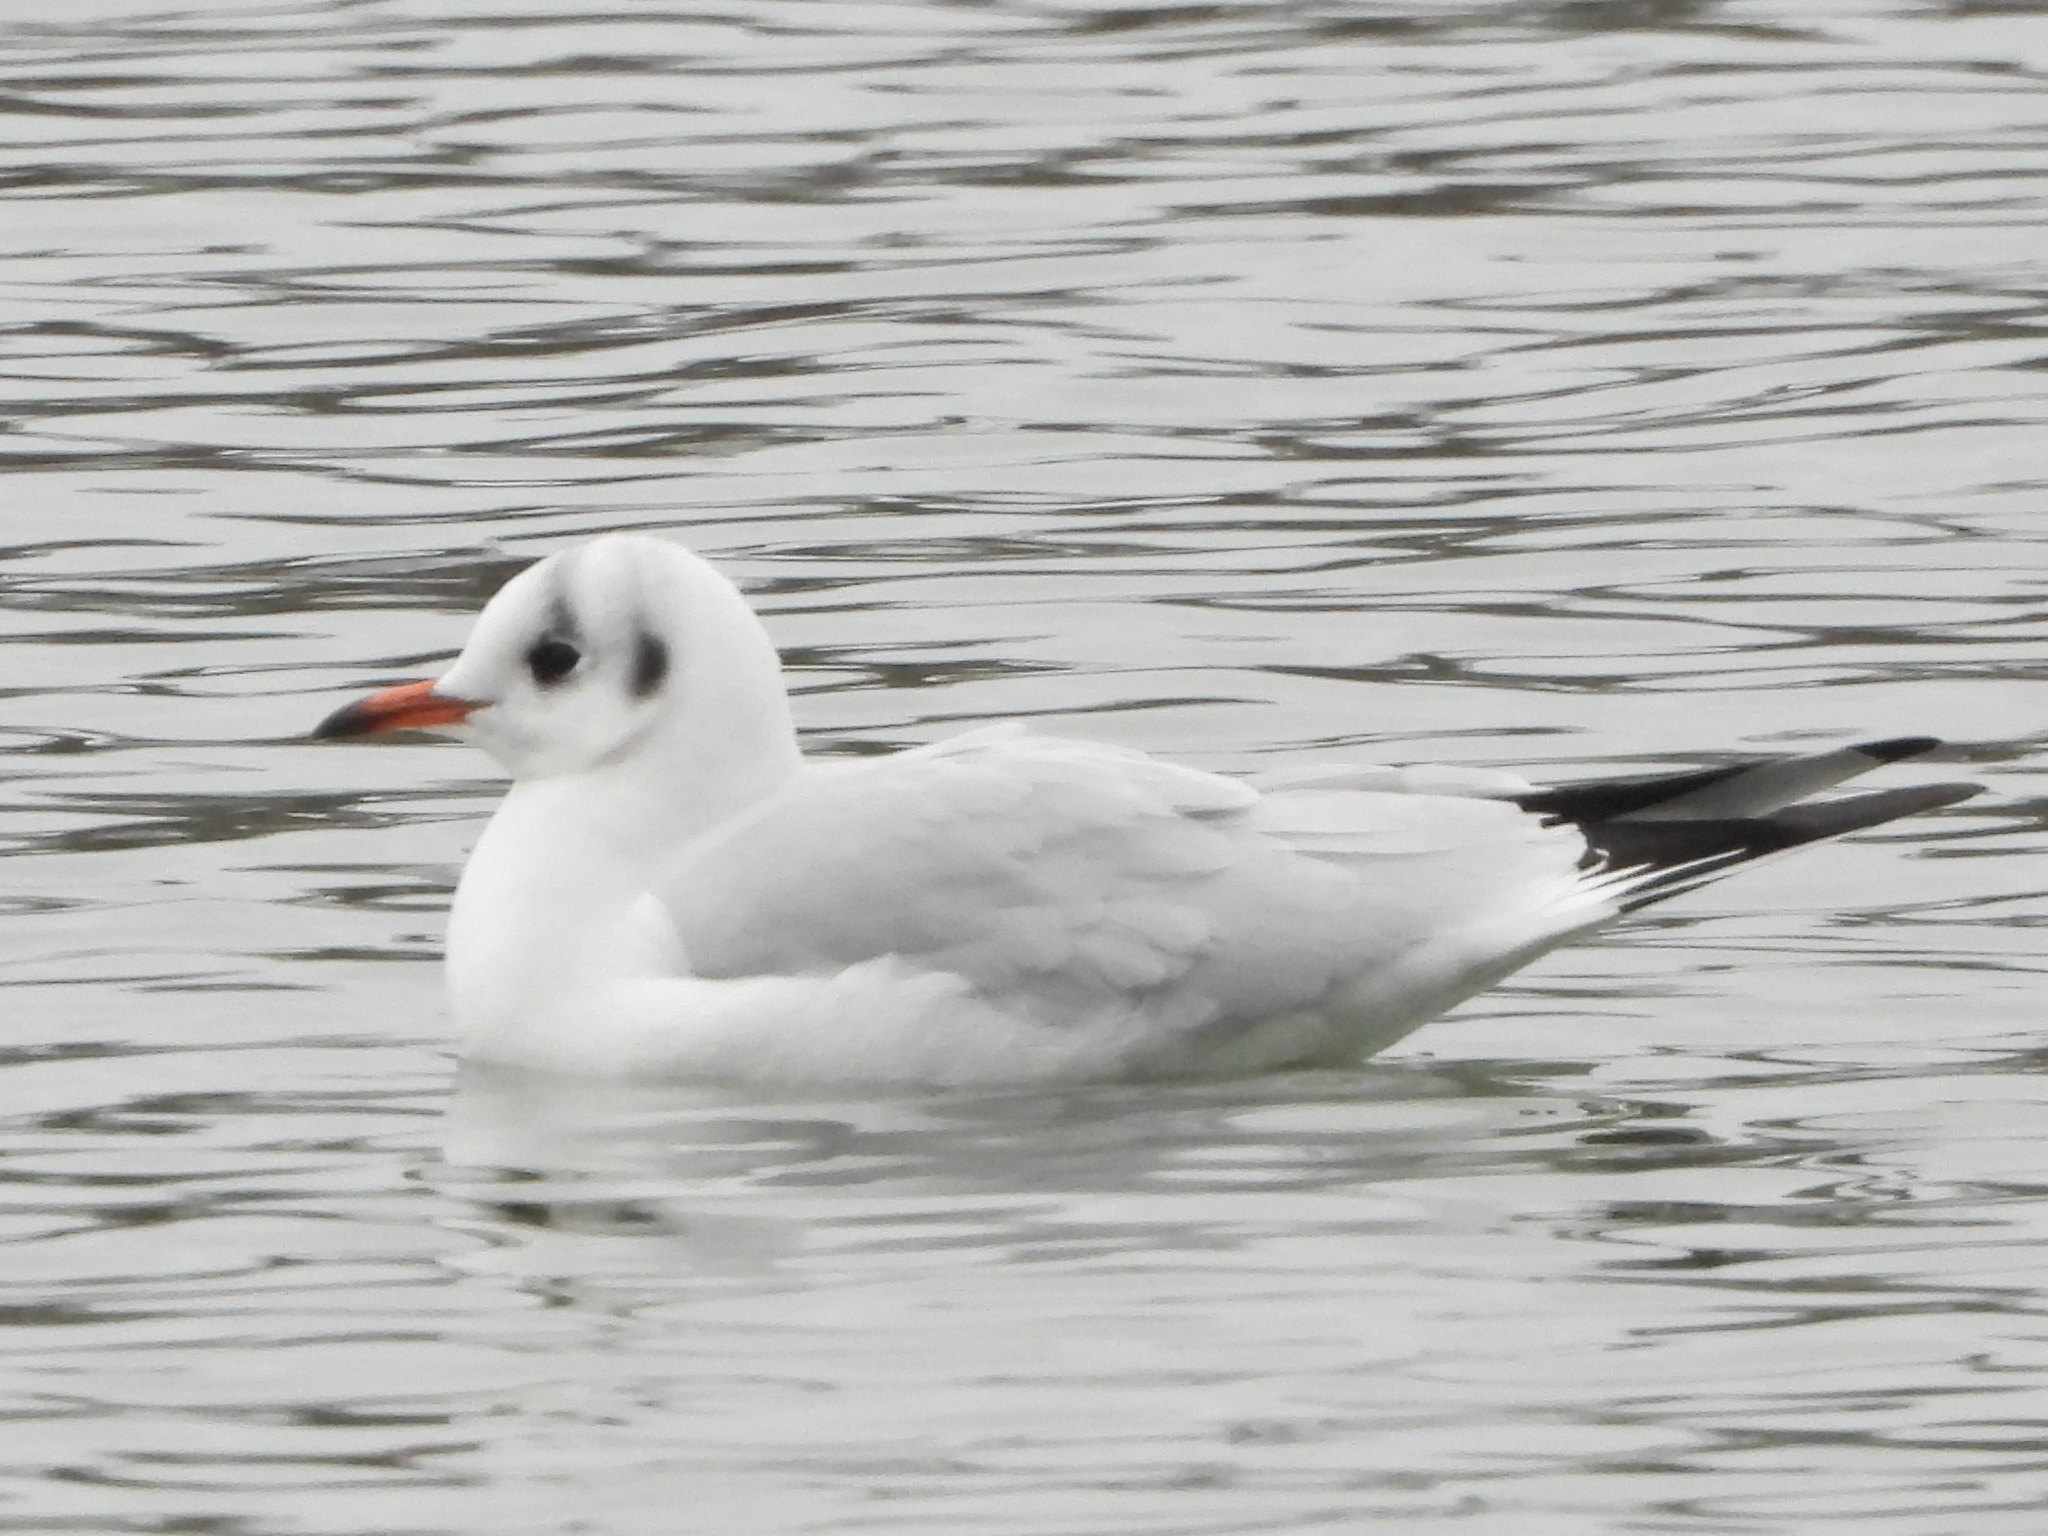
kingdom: Animalia
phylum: Chordata
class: Aves
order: Charadriiformes
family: Laridae
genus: Chroicocephalus
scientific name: Chroicocephalus ridibundus
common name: Black-headed gull
